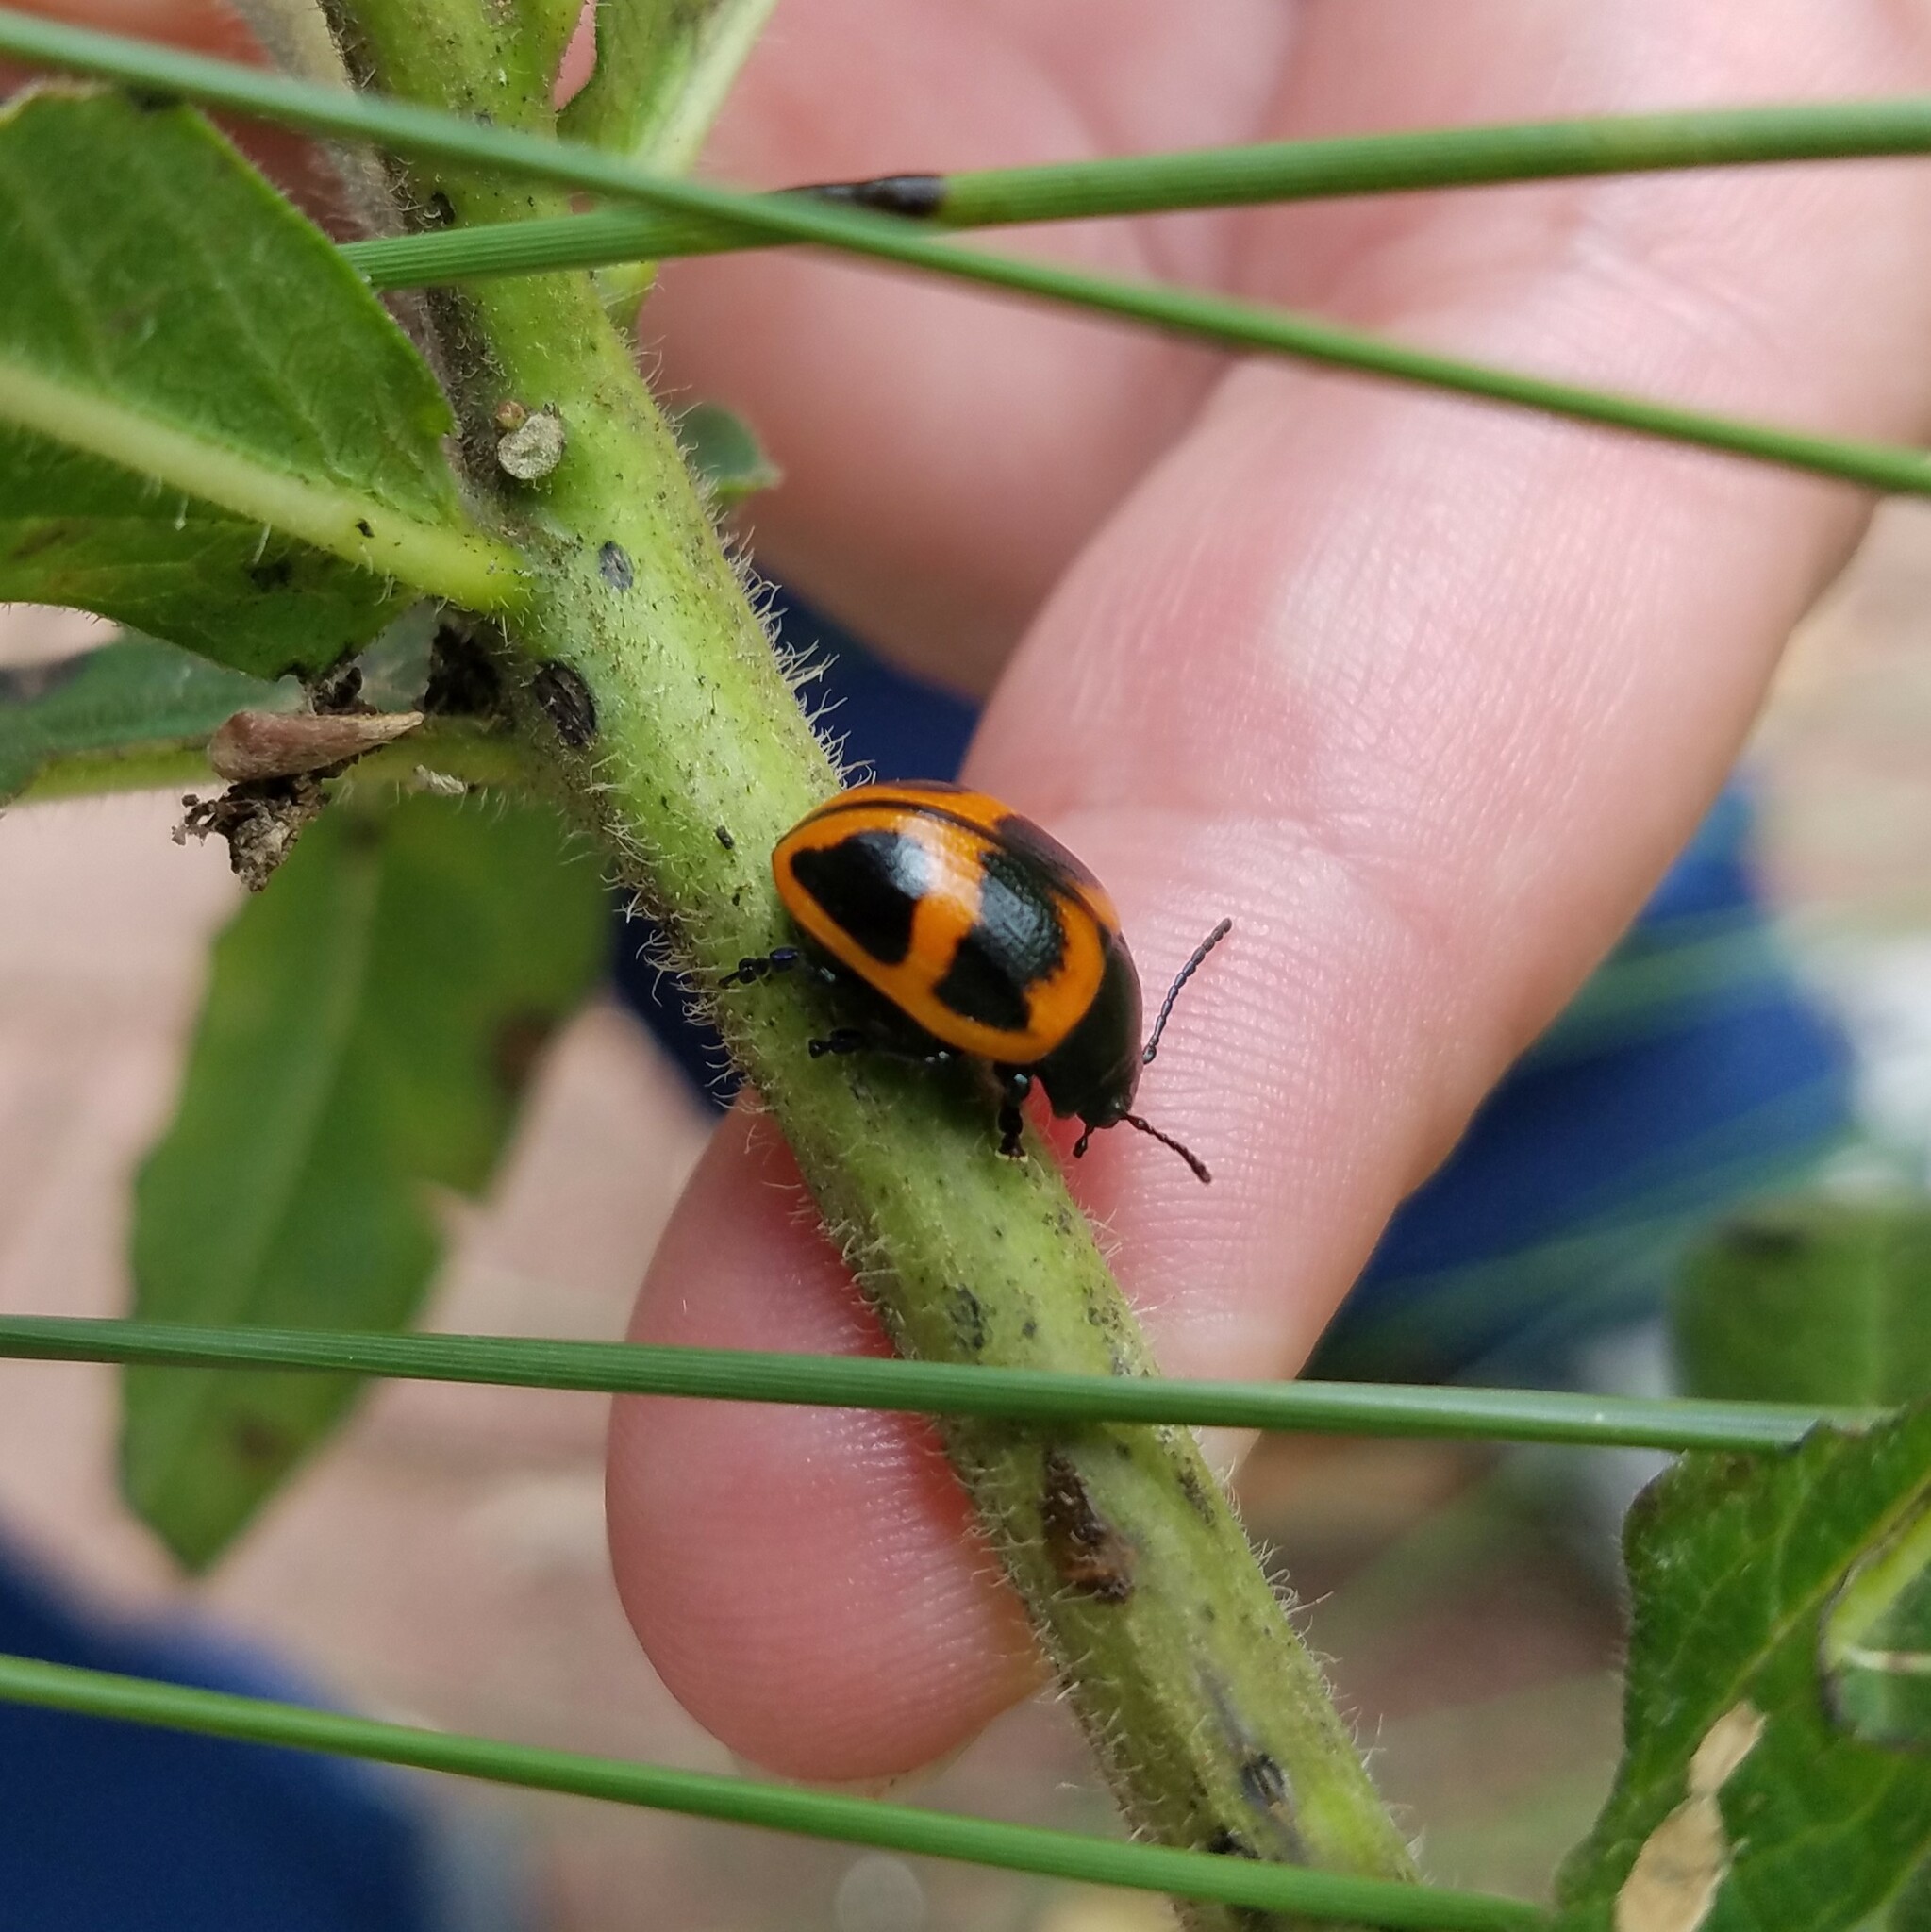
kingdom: Animalia
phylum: Arthropoda
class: Insecta
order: Coleoptera
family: Chrysomelidae
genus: Labidomera
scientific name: Labidomera clivicollis
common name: Swamp milkweed leaf beetle
